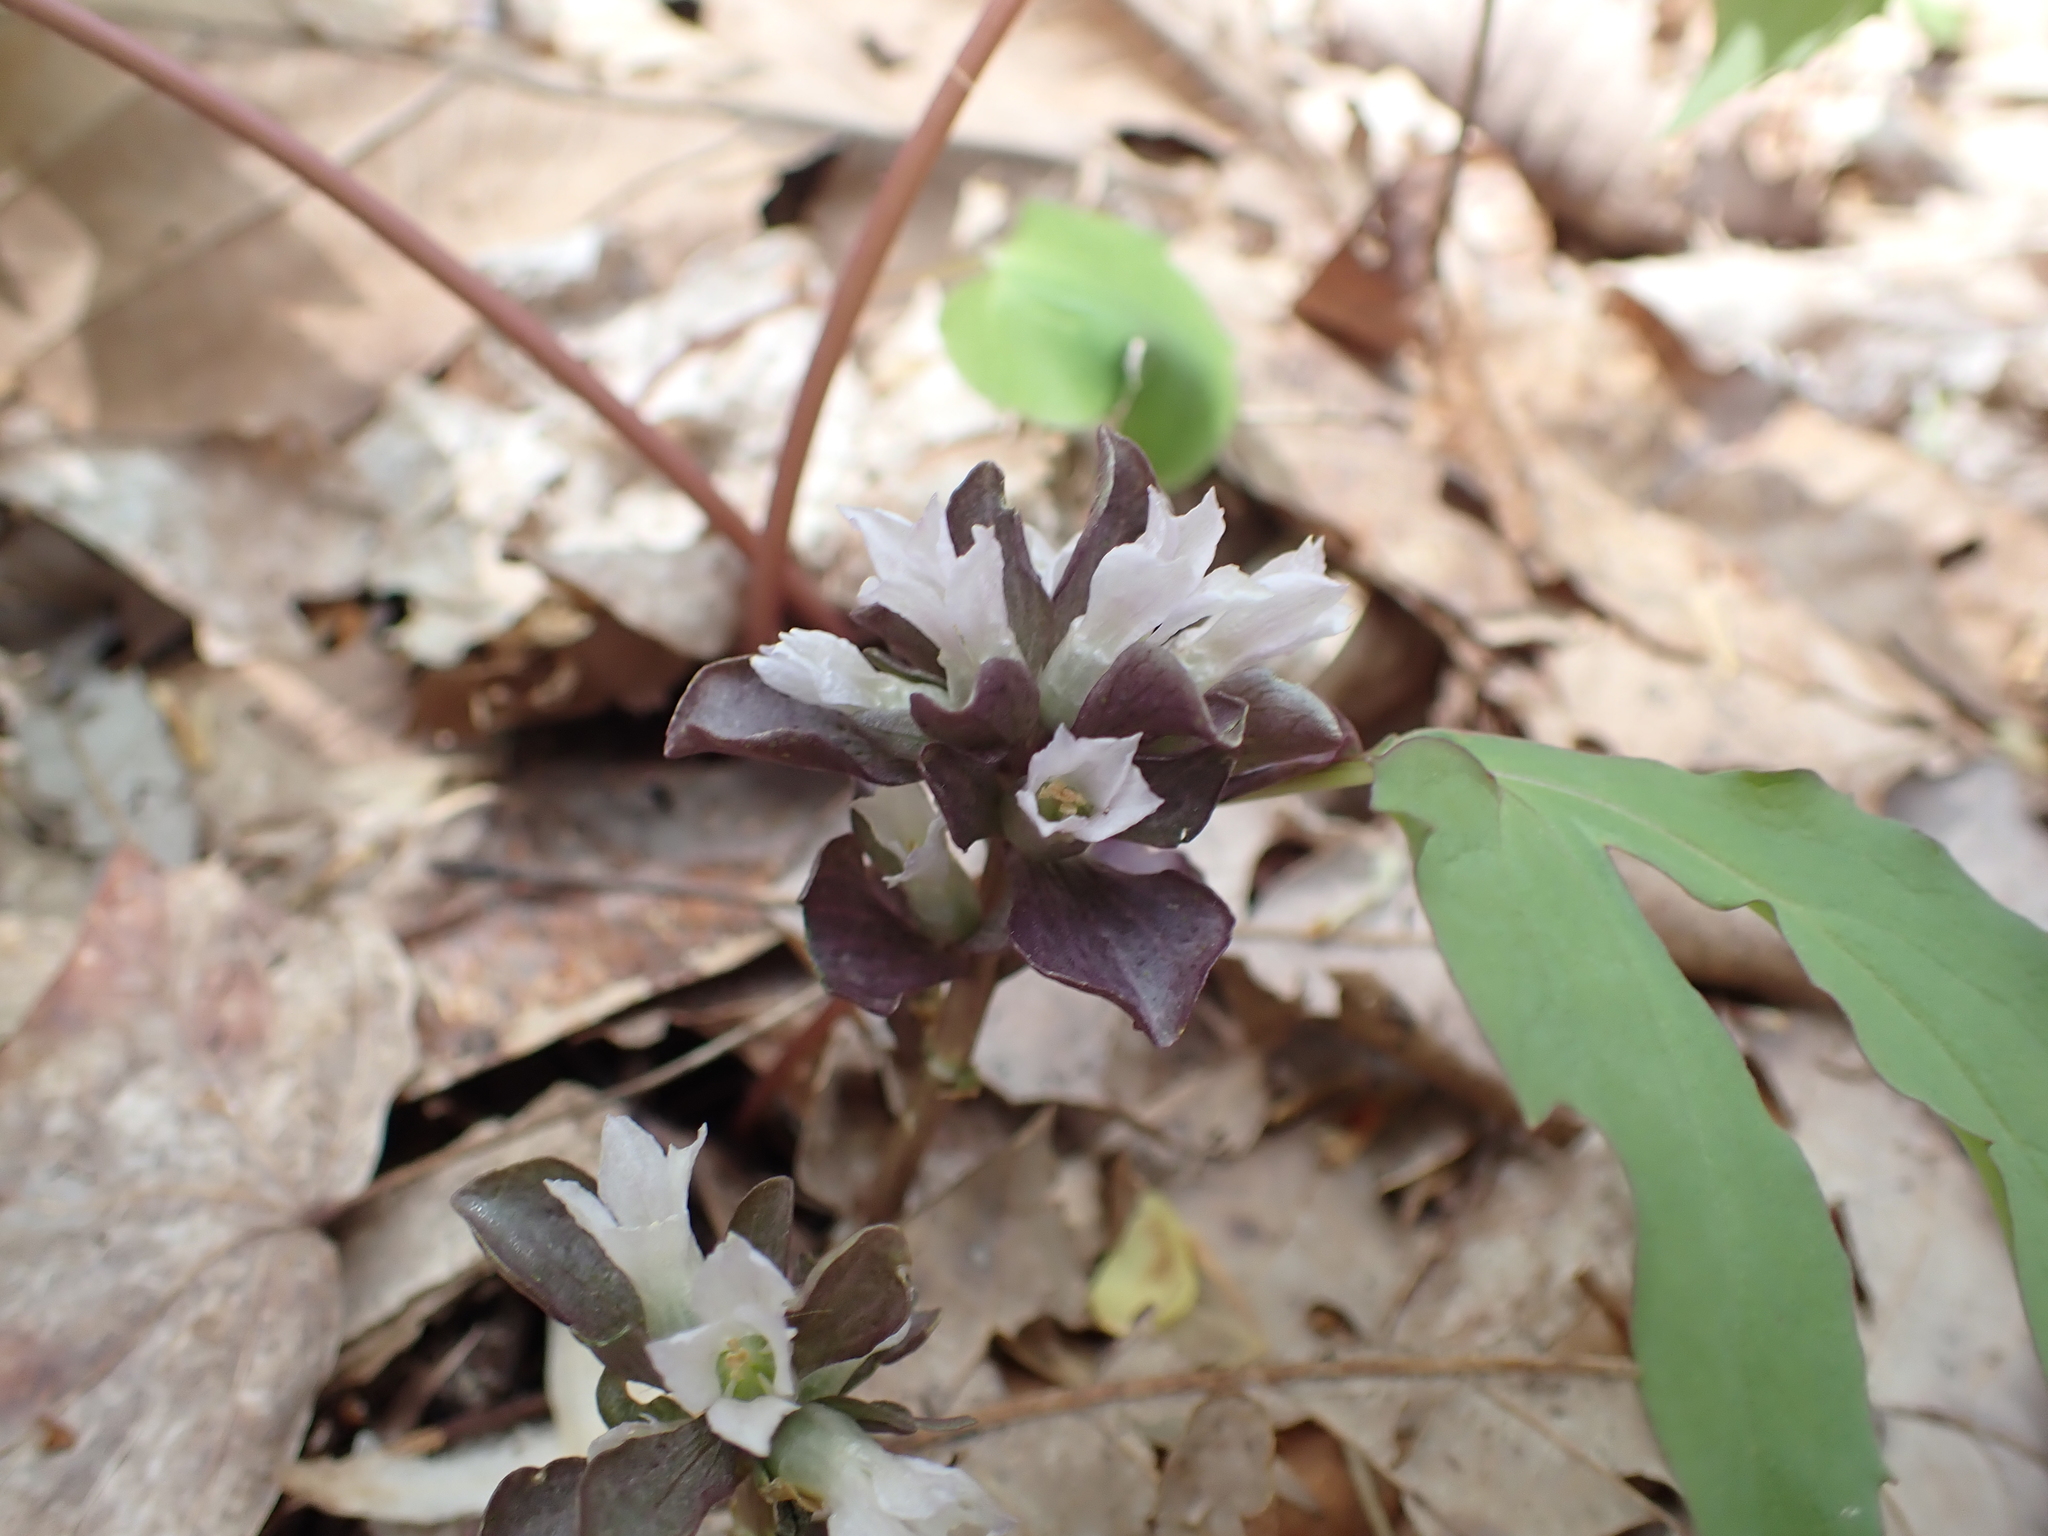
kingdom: Plantae
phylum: Tracheophyta
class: Magnoliopsida
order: Gentianales
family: Gentianaceae
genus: Obolaria
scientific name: Obolaria virginica
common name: Pennywort
